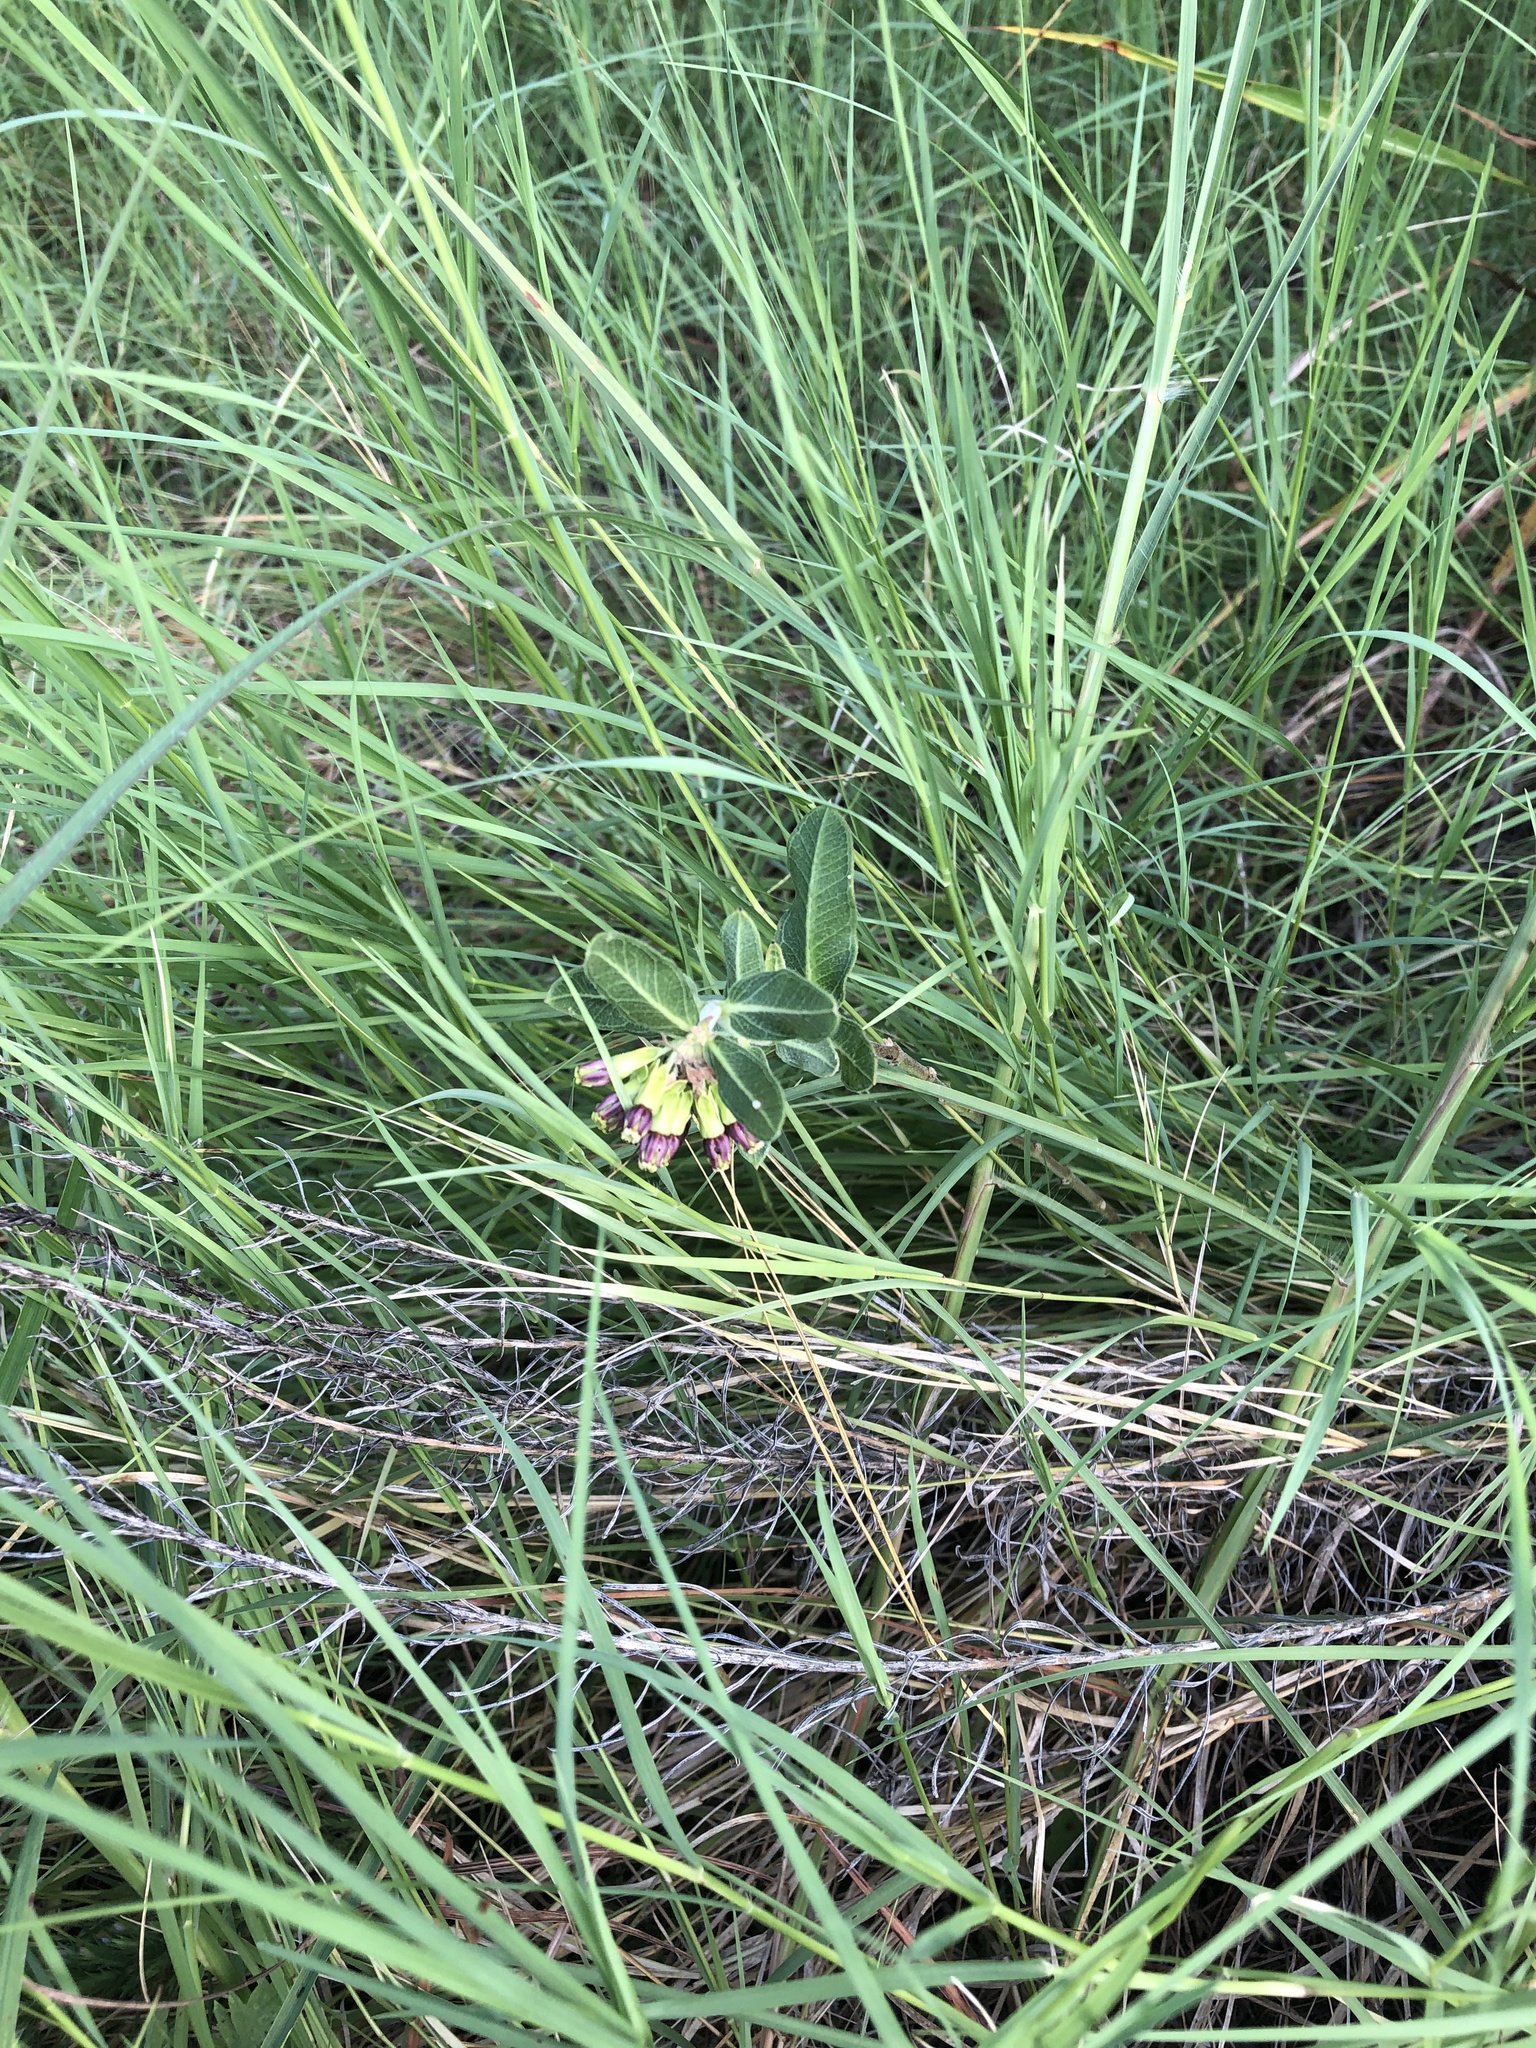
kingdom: Plantae
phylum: Tracheophyta
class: Magnoliopsida
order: Gentianales
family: Apocynaceae
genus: Asclepias
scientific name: Asclepias viridiflora
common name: Green comet milkweed
